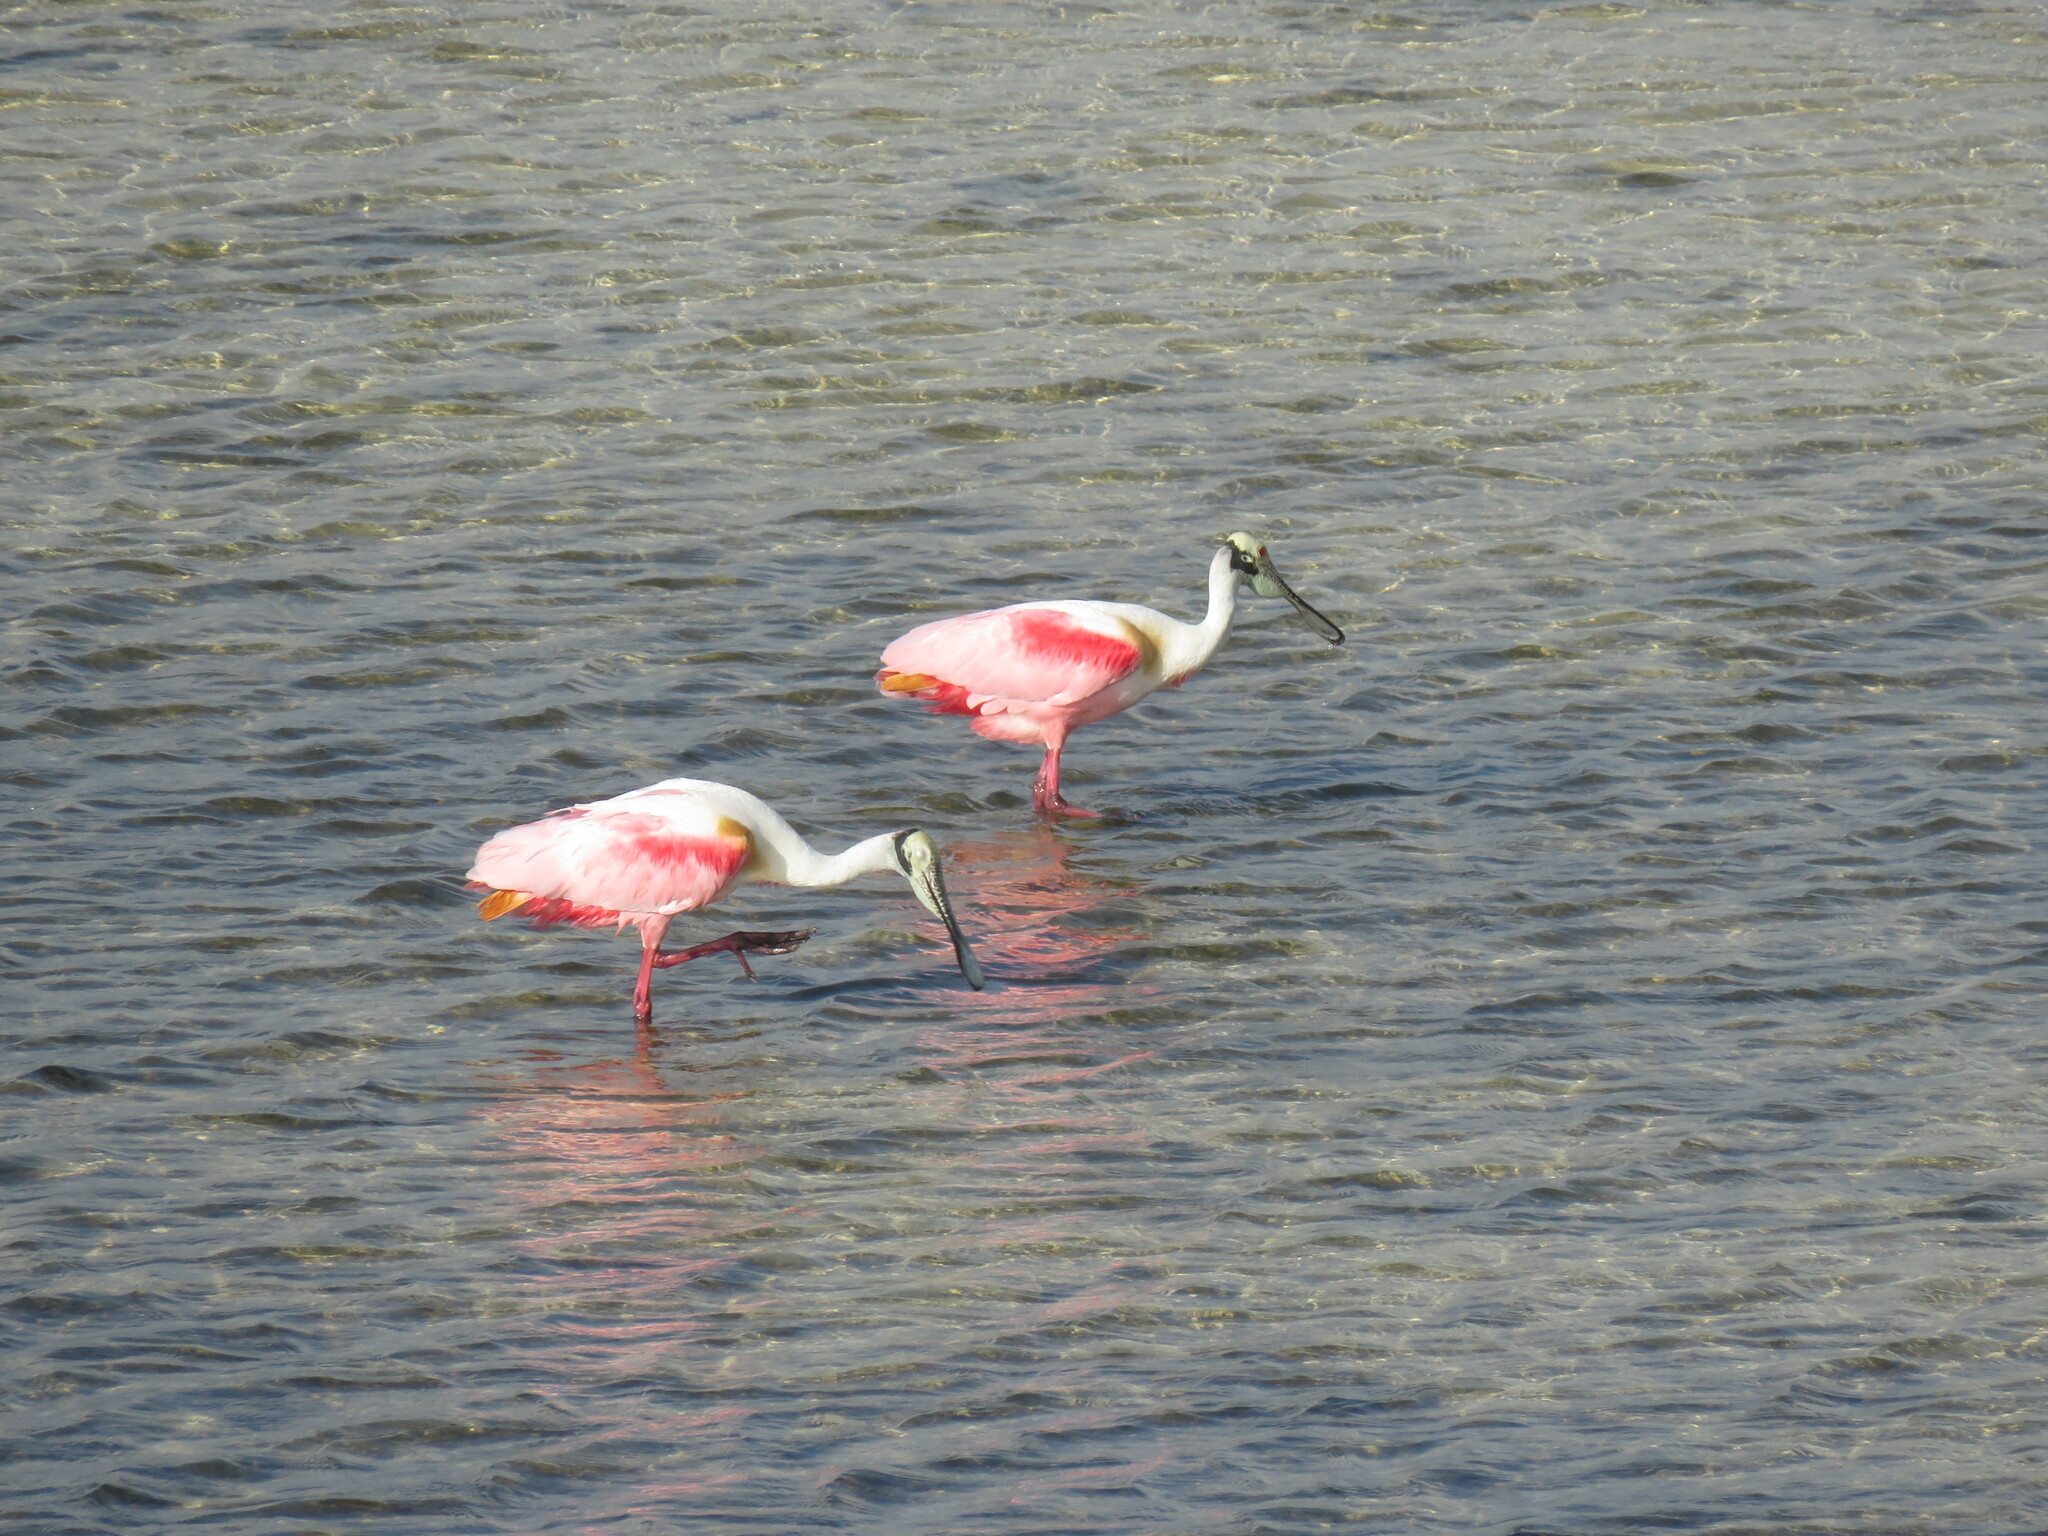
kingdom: Animalia
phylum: Chordata
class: Aves
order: Pelecaniformes
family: Threskiornithidae
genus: Platalea
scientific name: Platalea ajaja
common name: Roseate spoonbill
